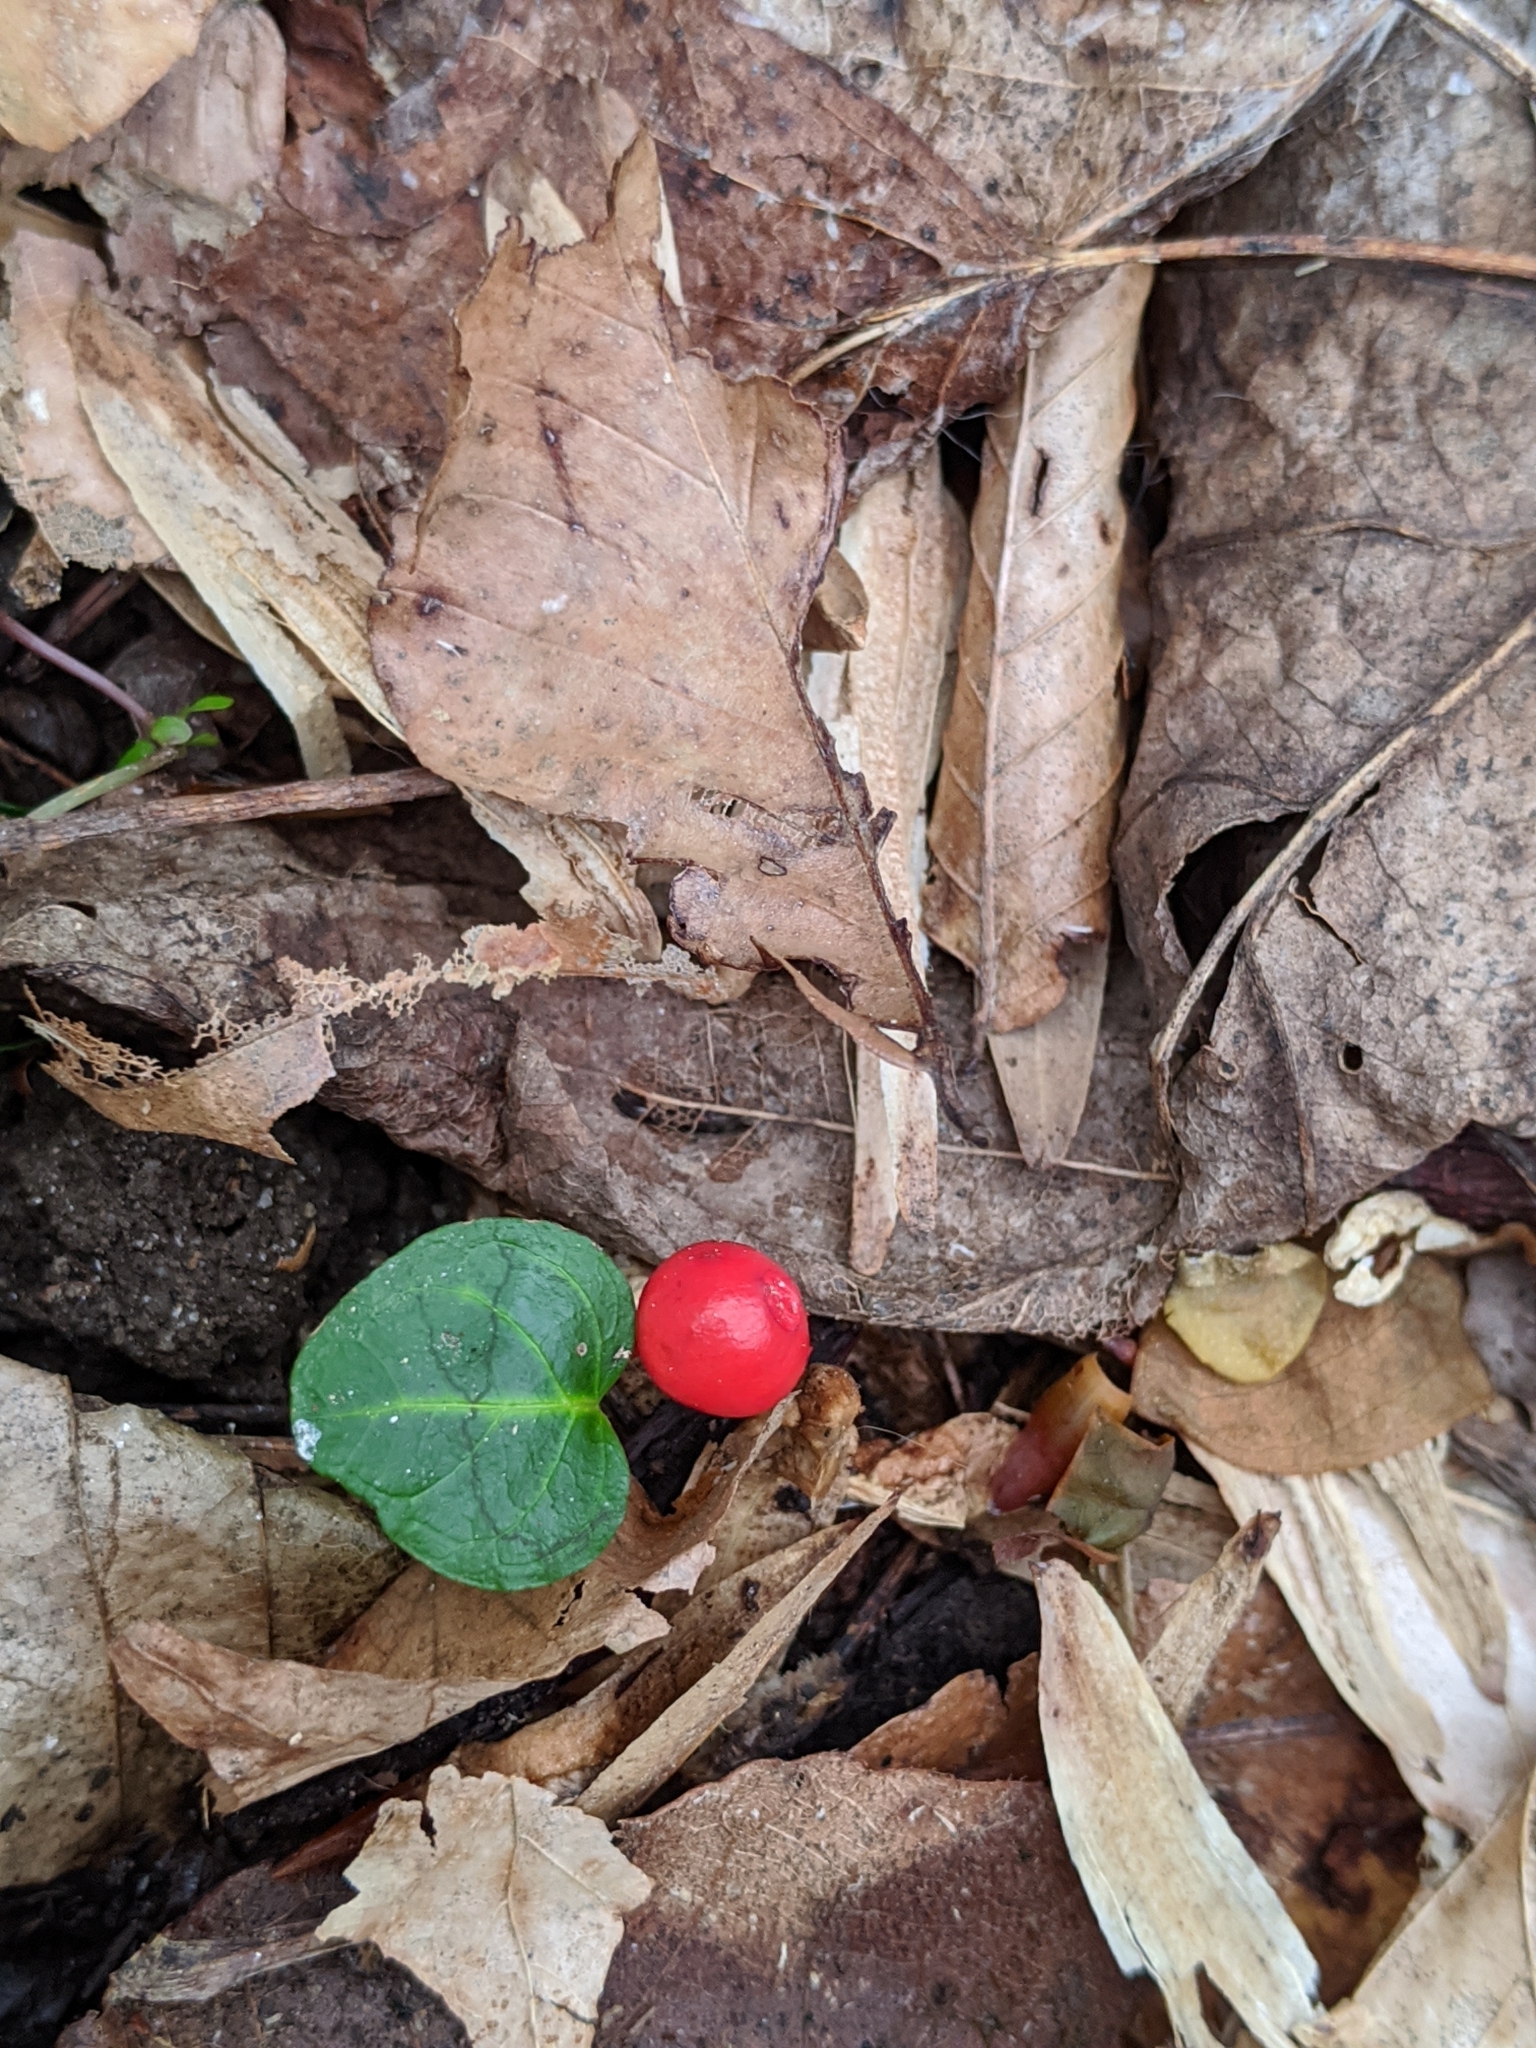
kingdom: Plantae
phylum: Tracheophyta
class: Magnoliopsida
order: Gentianales
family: Rubiaceae
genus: Mitchella
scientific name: Mitchella repens
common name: Partridge-berry
